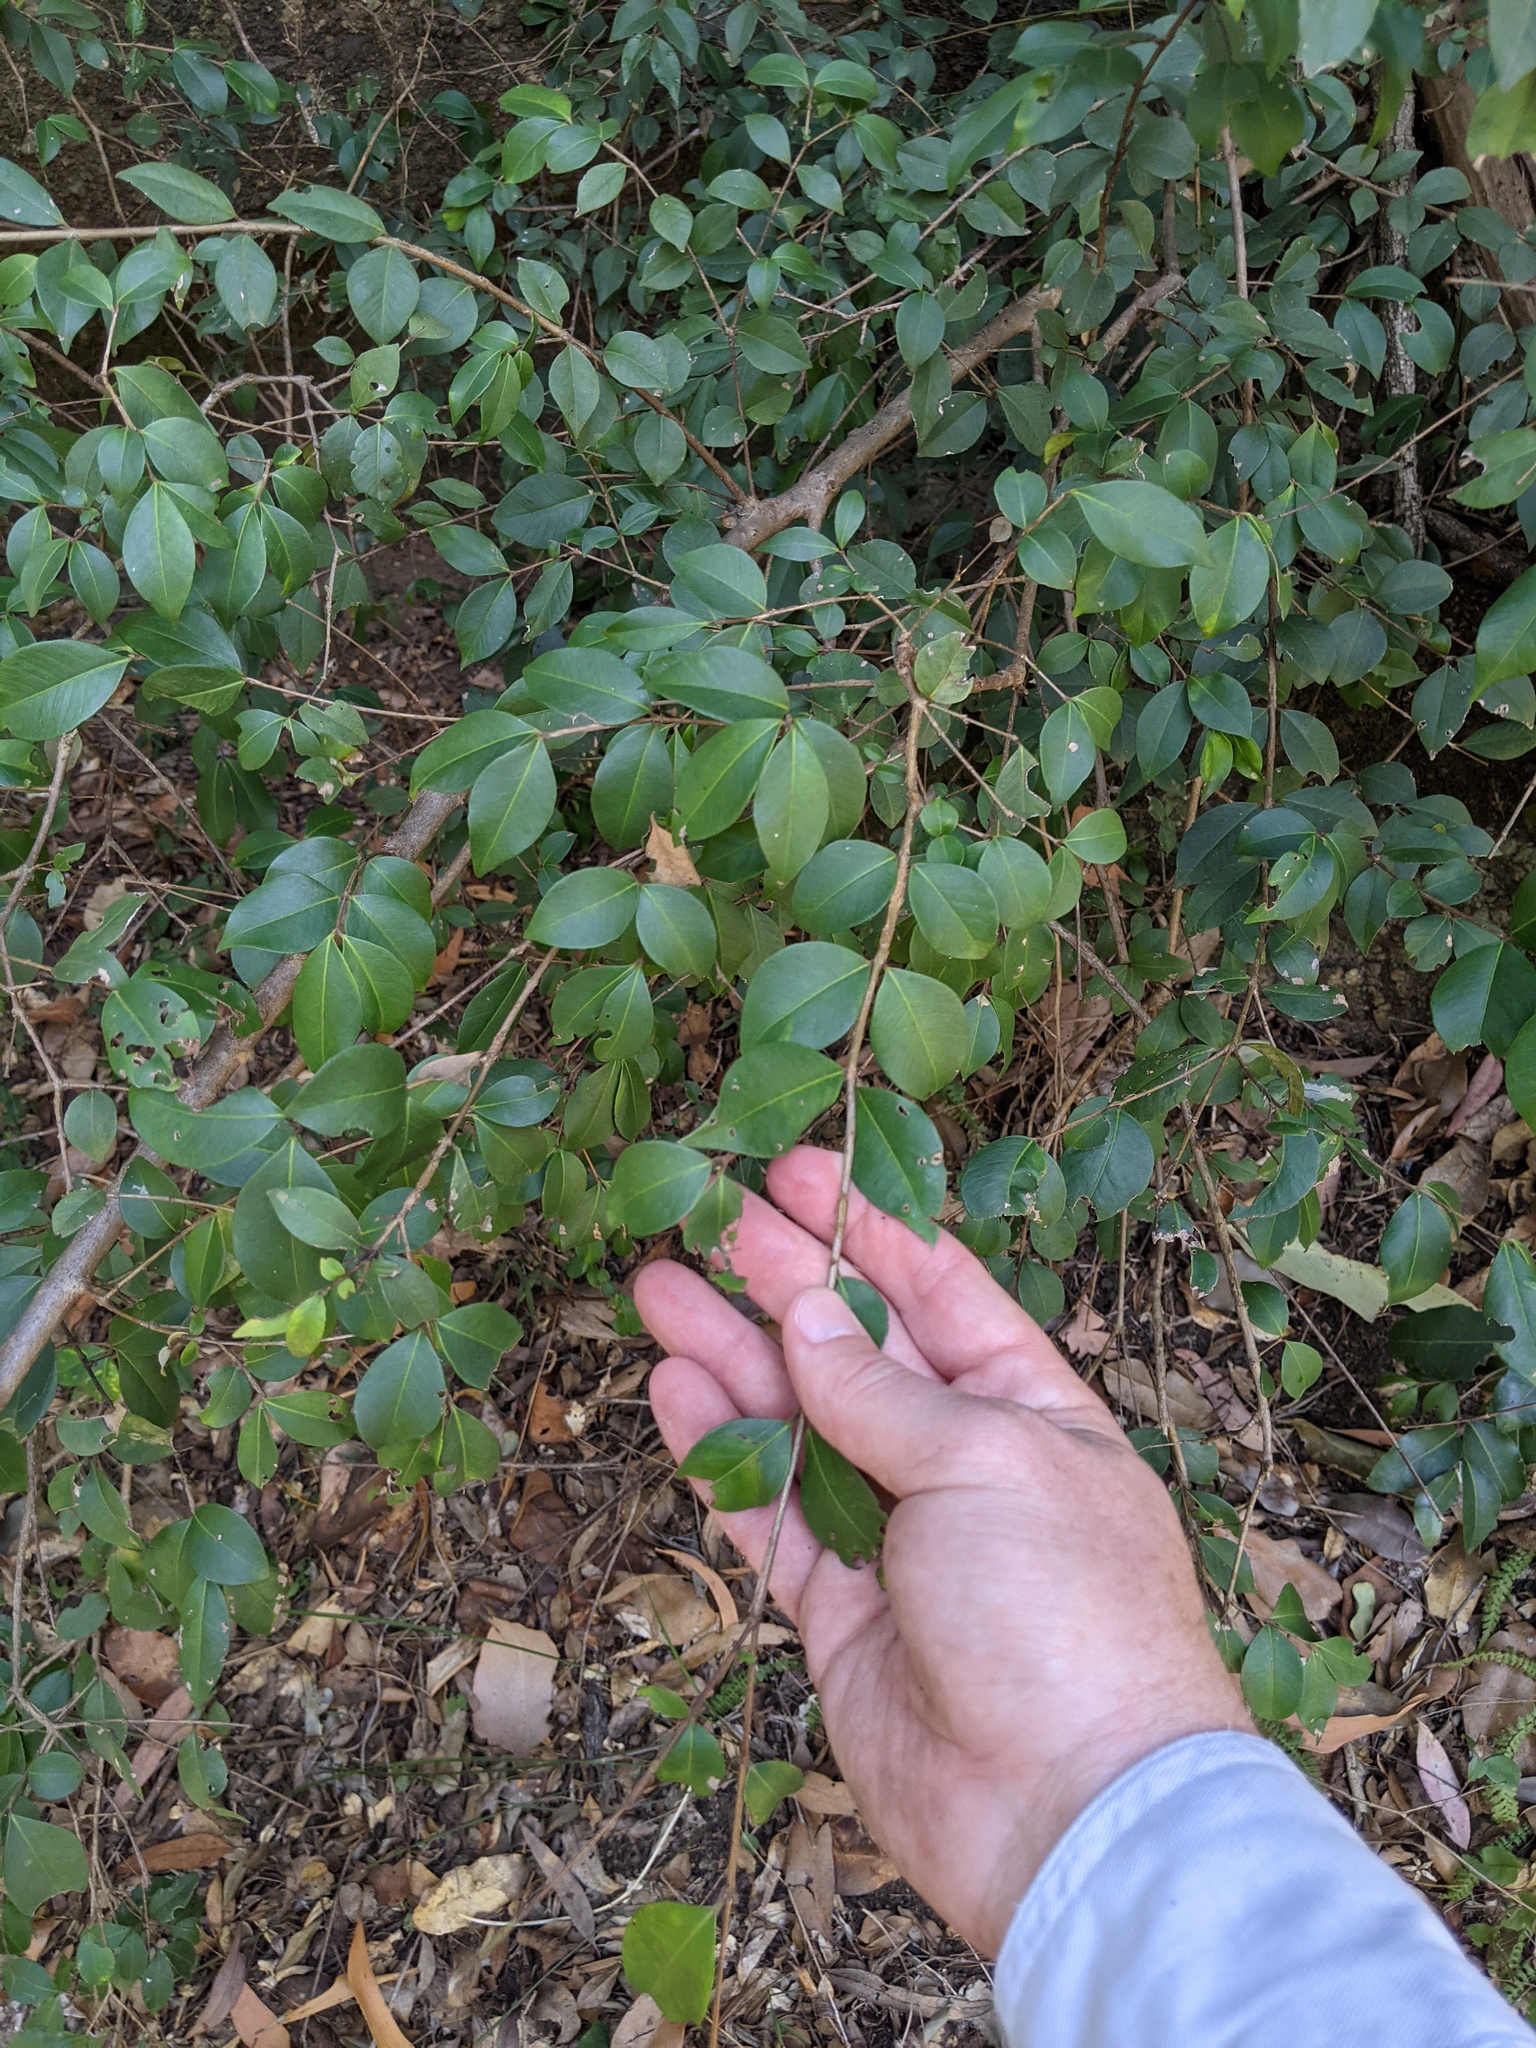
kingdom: Plantae
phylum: Tracheophyta
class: Magnoliopsida
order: Myrtales
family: Myrtaceae
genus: Backhousia
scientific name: Backhousia myrtifolia
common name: Carrol
